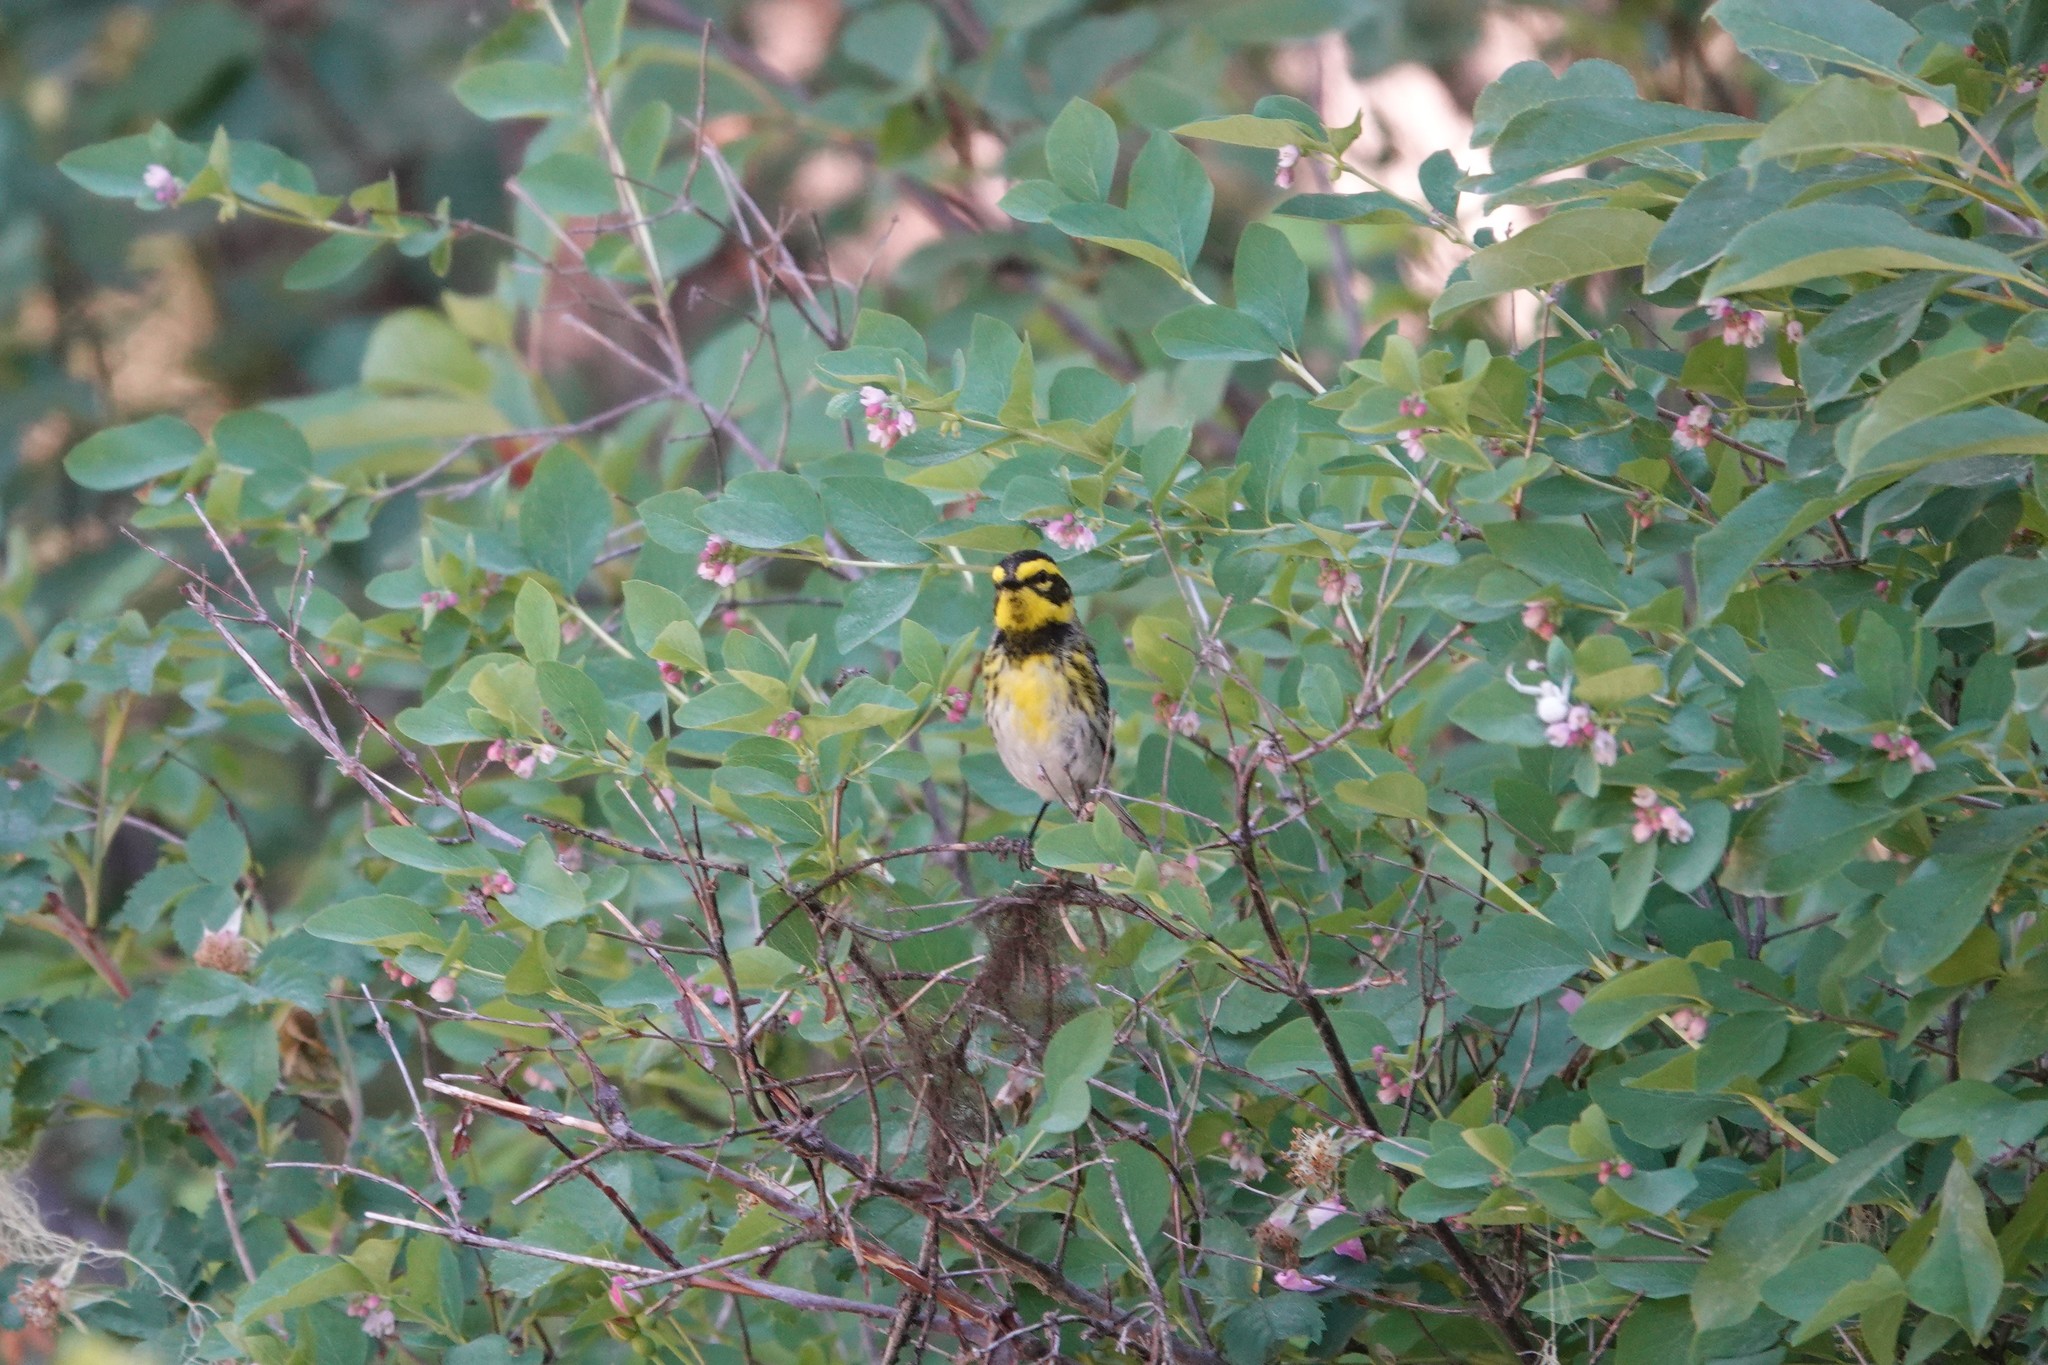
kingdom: Animalia
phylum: Chordata
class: Aves
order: Passeriformes
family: Parulidae
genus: Setophaga
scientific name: Setophaga townsendi
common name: Townsend's warbler
